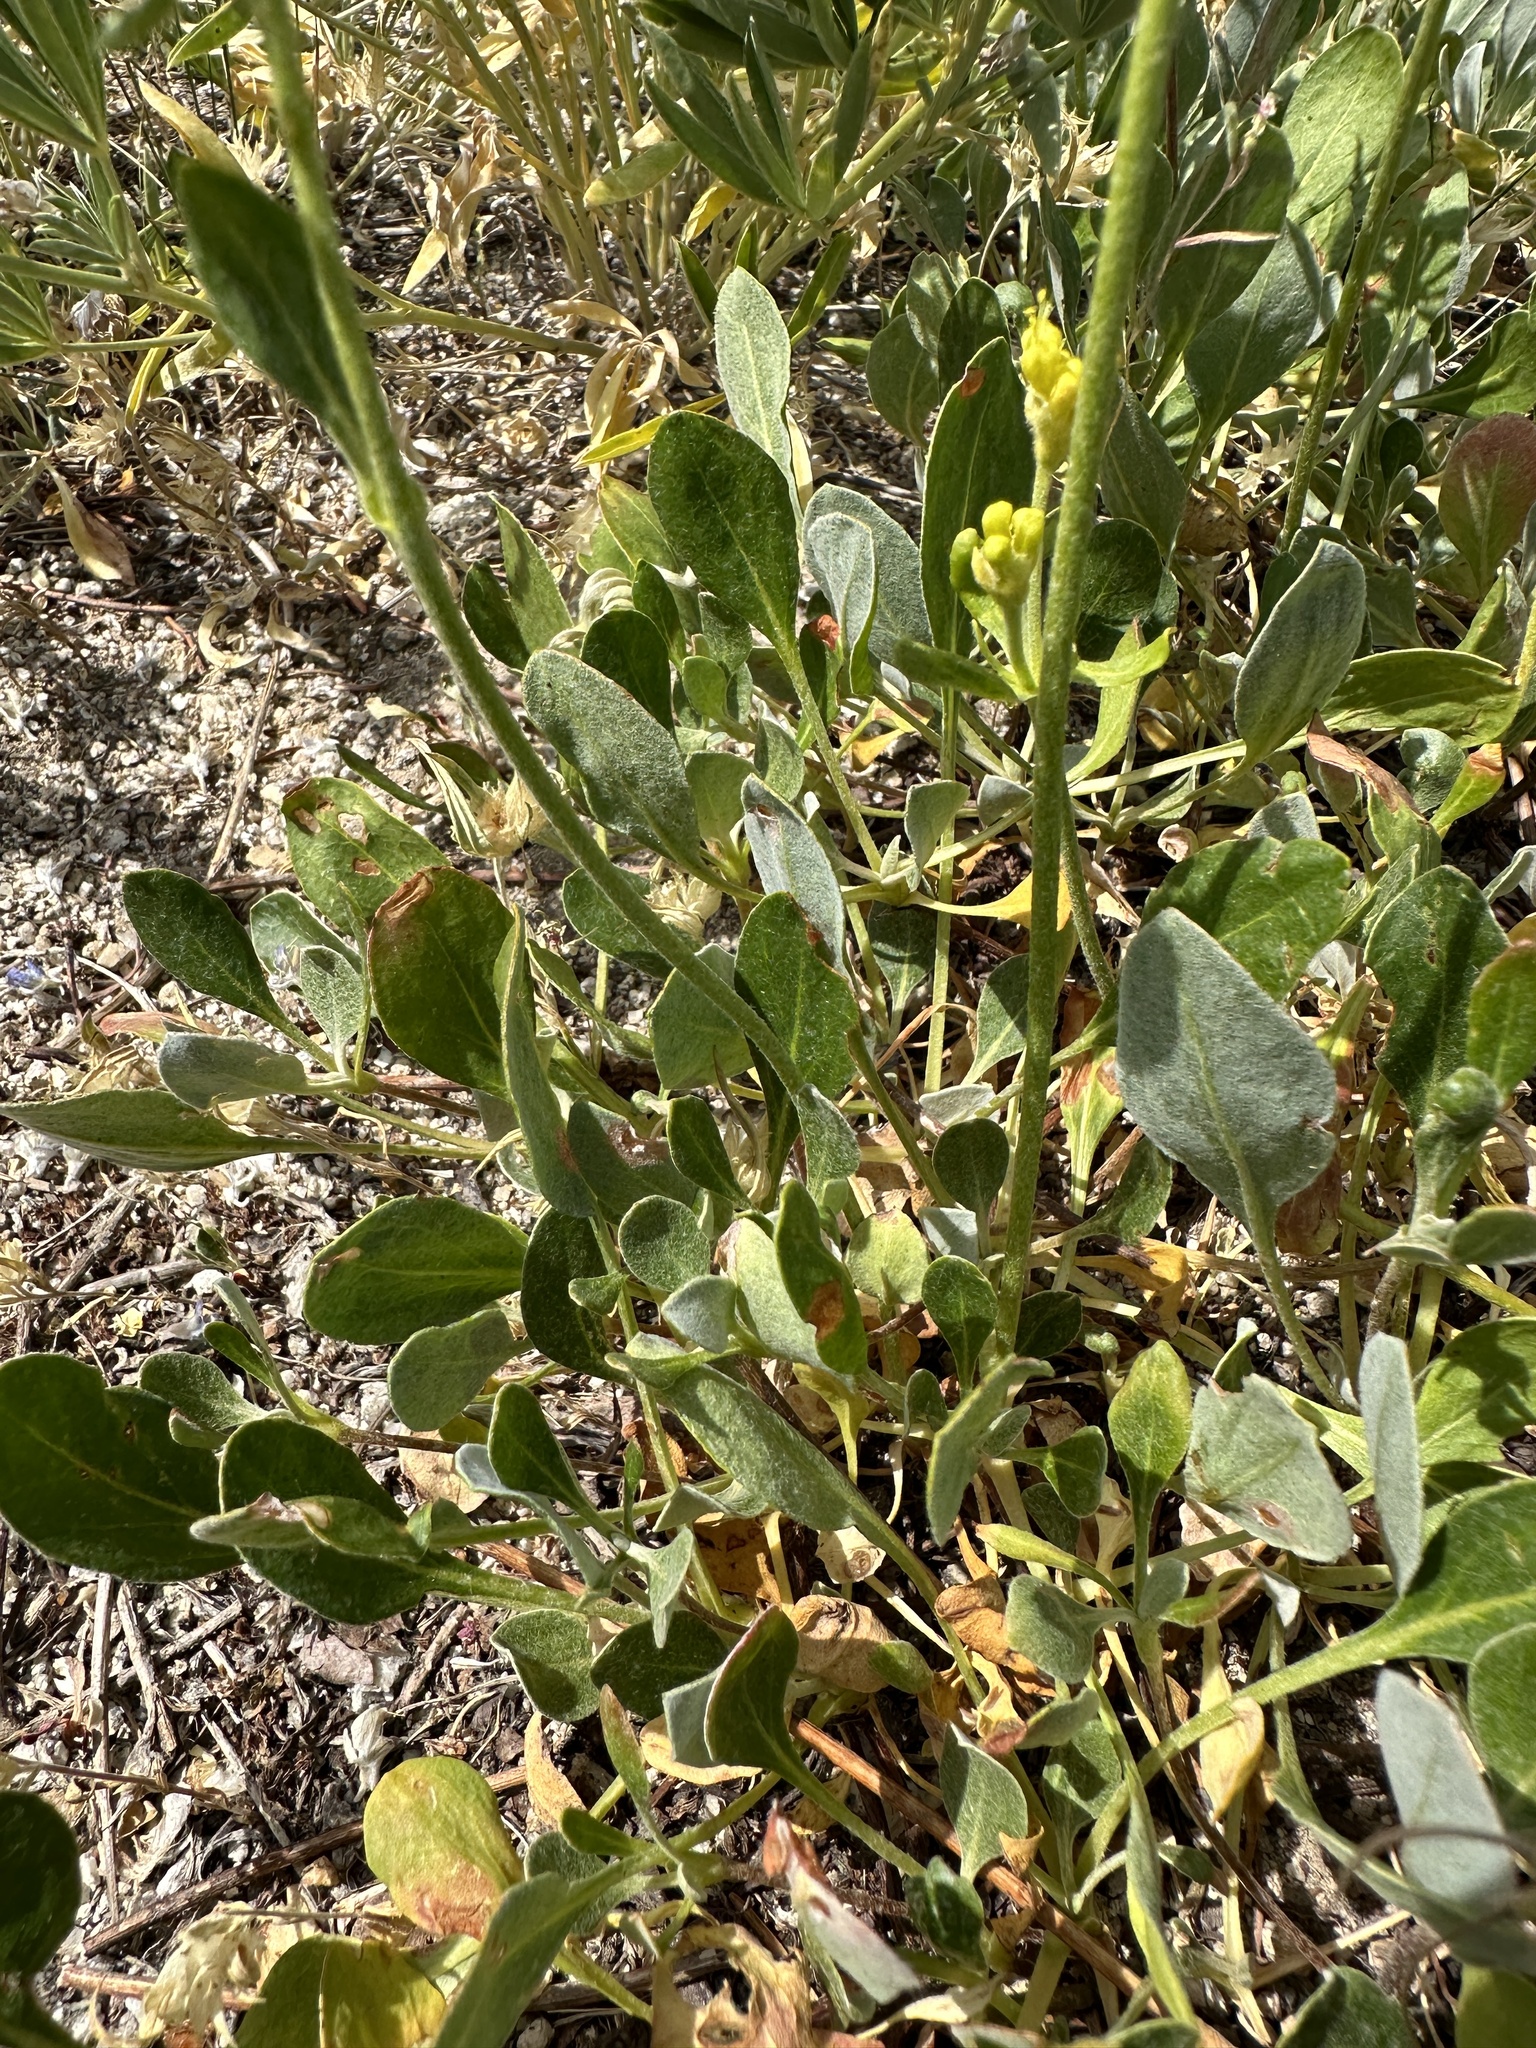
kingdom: Plantae
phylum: Tracheophyta
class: Magnoliopsida
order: Caryophyllales
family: Polygonaceae
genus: Eriogonum
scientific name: Eriogonum umbellatum
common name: Sulfur-buckwheat
